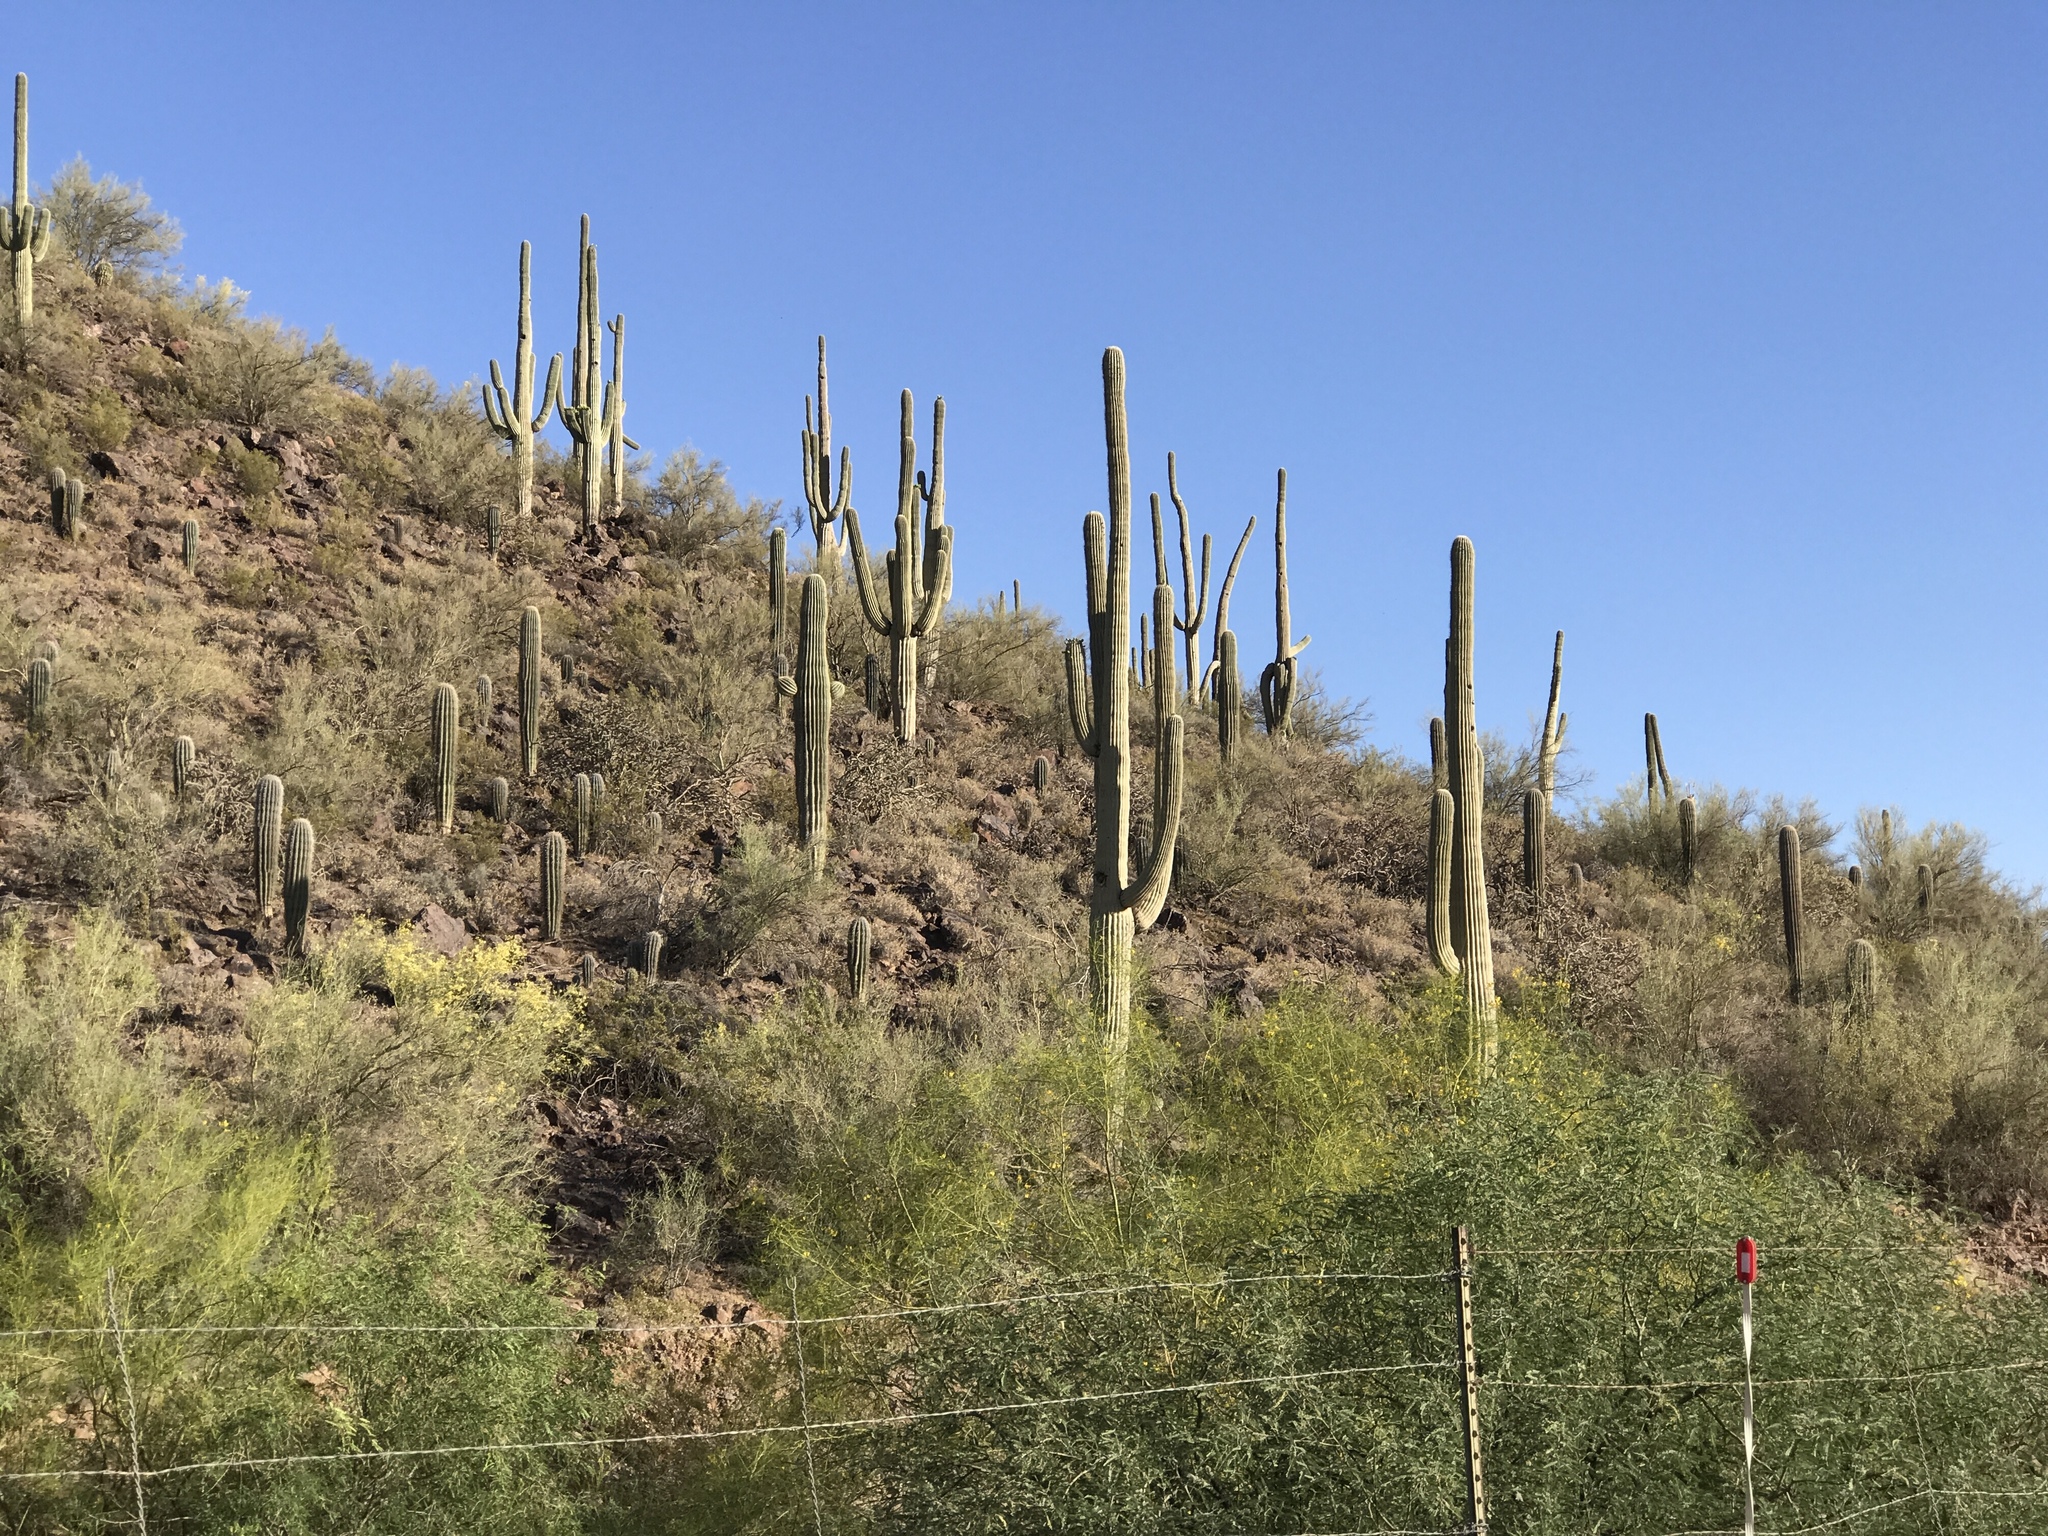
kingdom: Plantae
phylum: Tracheophyta
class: Magnoliopsida
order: Caryophyllales
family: Cactaceae
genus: Carnegiea
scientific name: Carnegiea gigantea
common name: Saguaro
